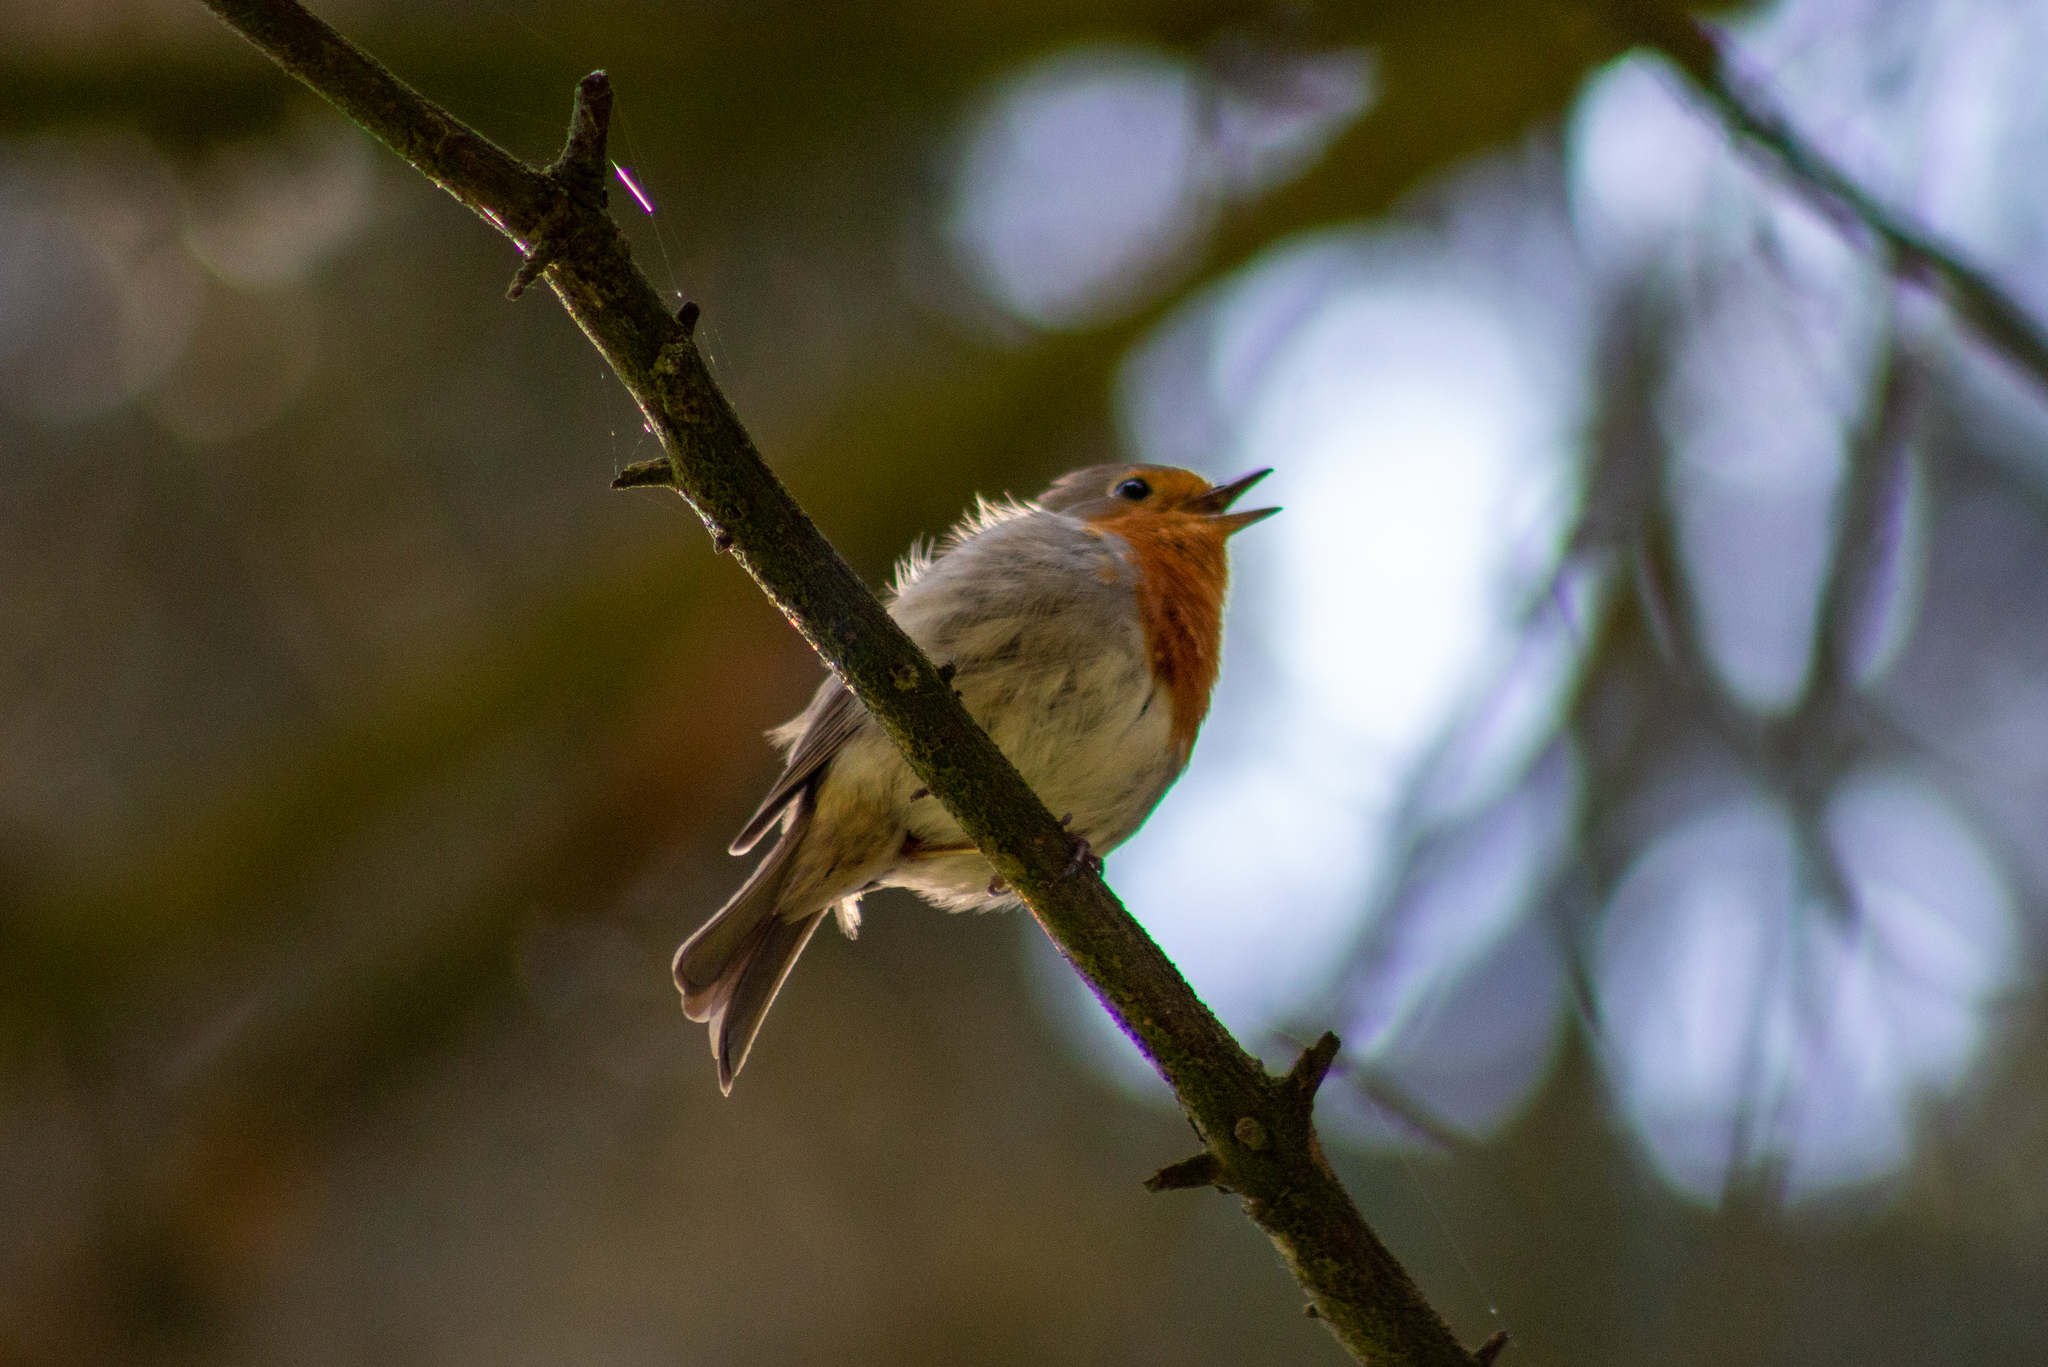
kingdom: Animalia
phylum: Chordata
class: Aves
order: Passeriformes
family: Muscicapidae
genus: Erithacus
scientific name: Erithacus rubecula
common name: European robin
